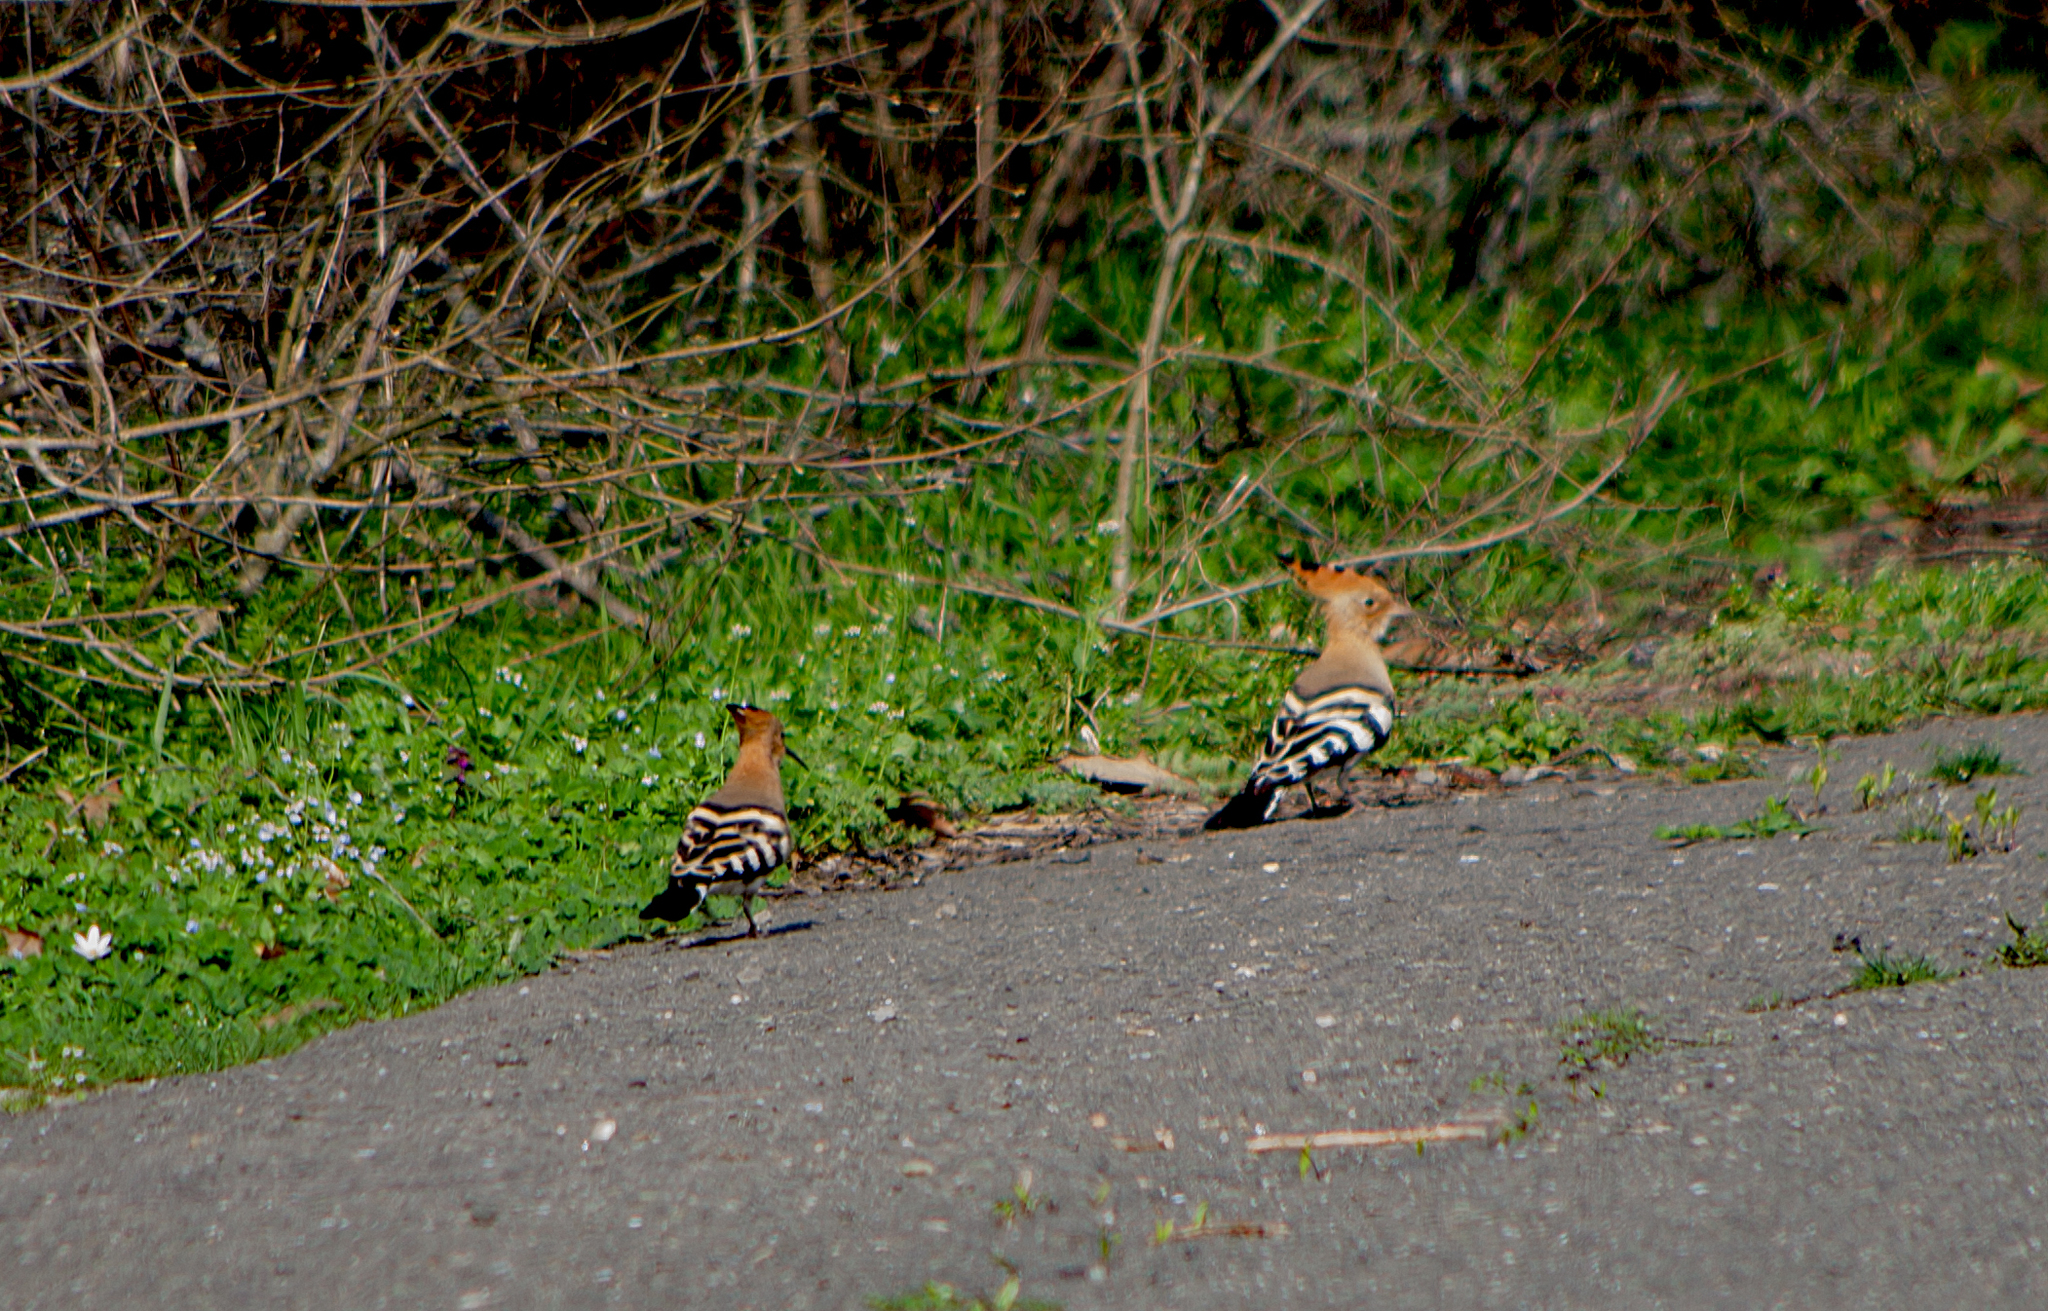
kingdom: Animalia
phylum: Chordata
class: Aves
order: Bucerotiformes
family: Upupidae
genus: Upupa
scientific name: Upupa epops
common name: Eurasian hoopoe
